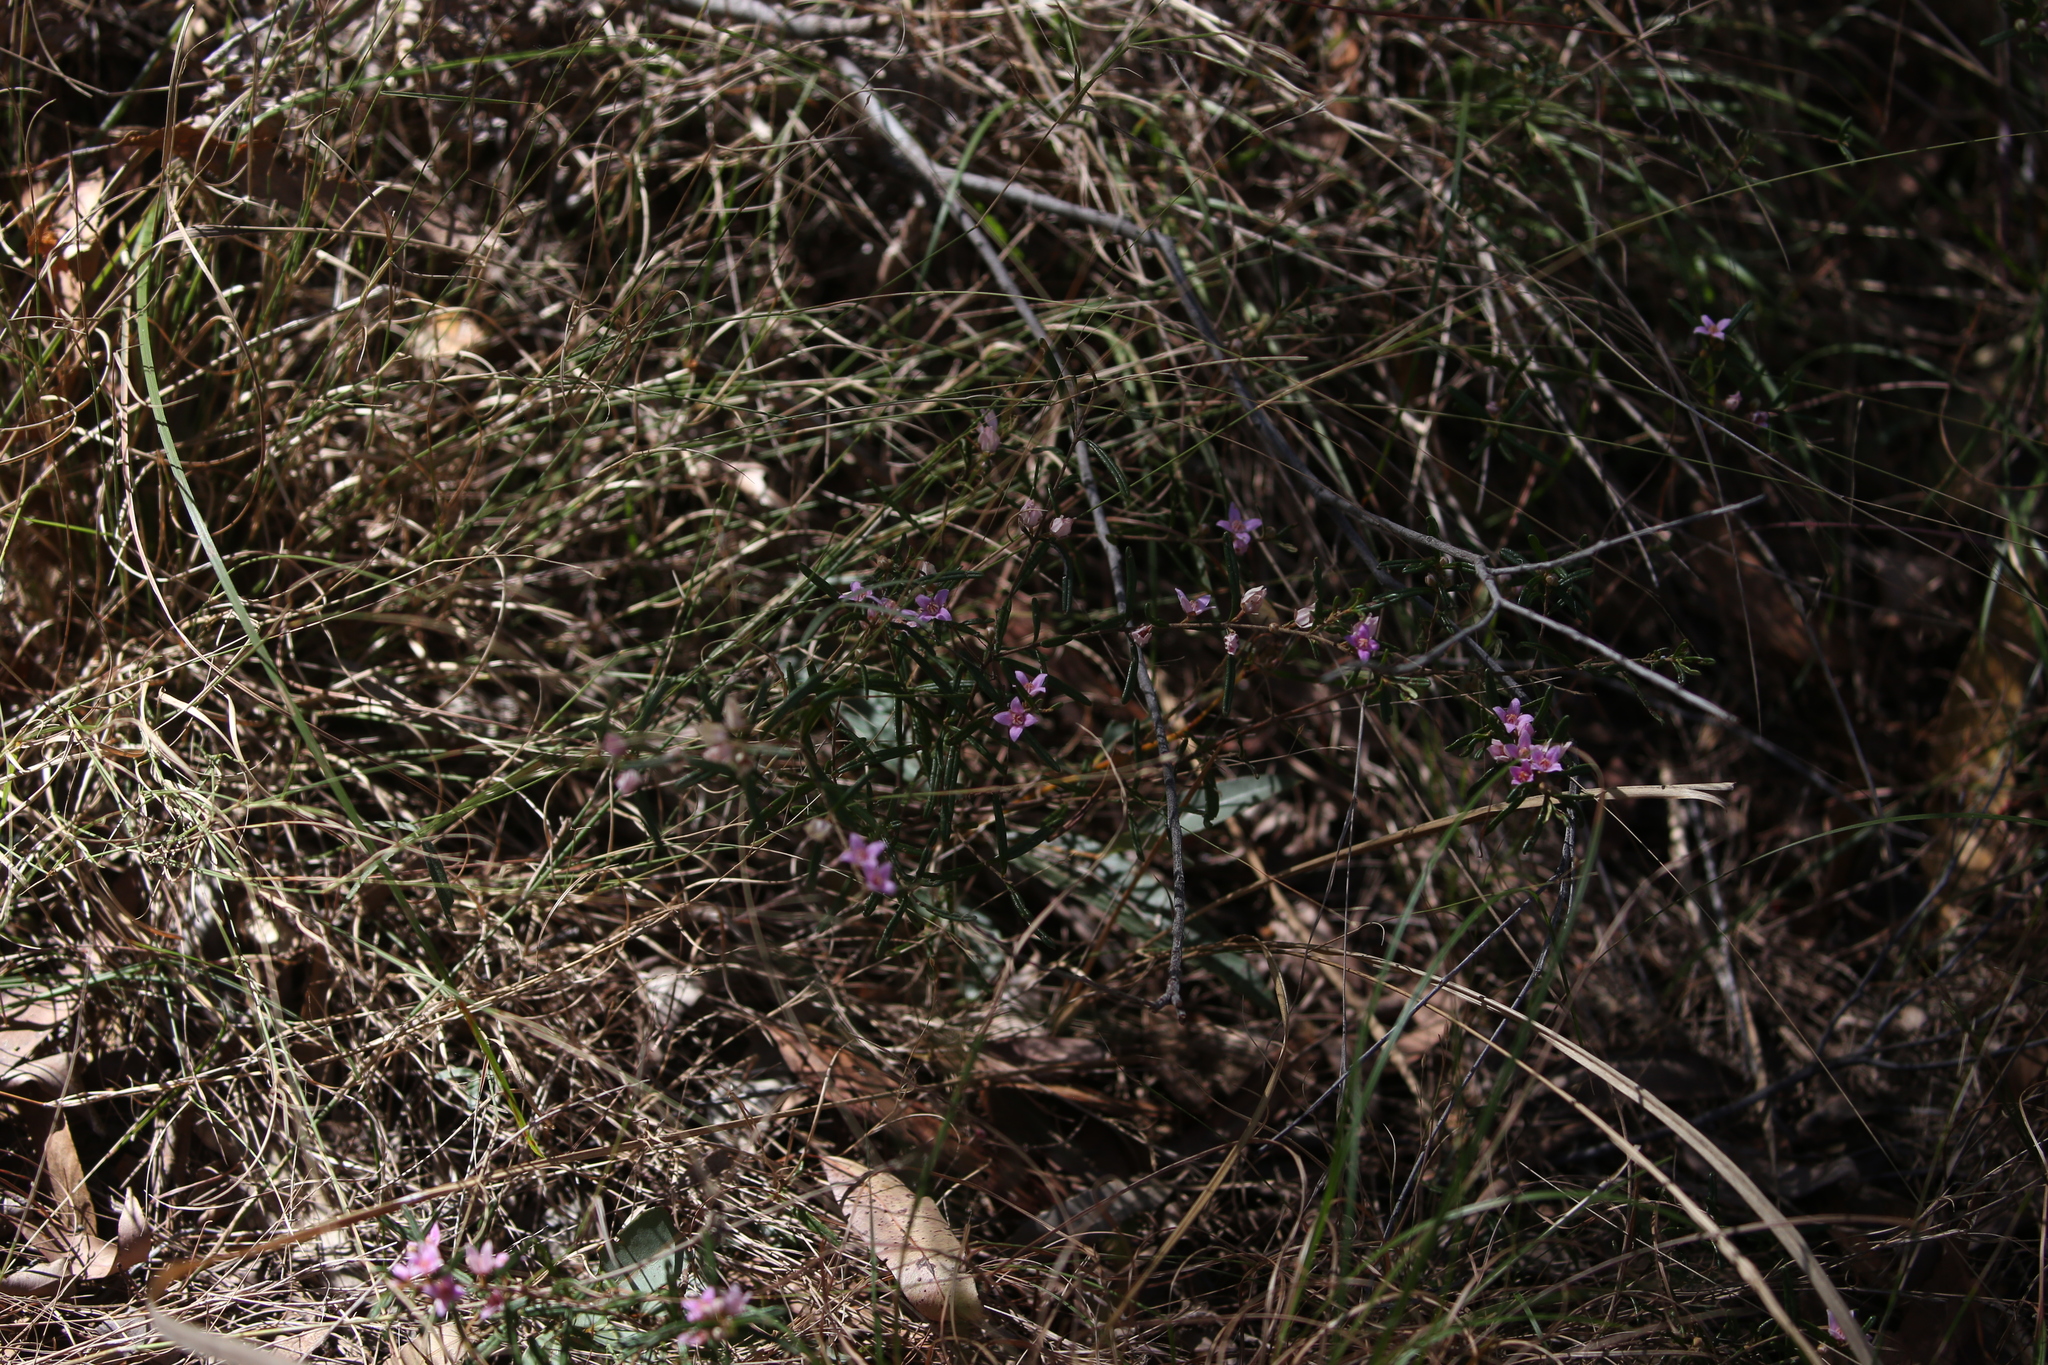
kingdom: Plantae
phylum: Tracheophyta
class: Magnoliopsida
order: Sapindales
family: Rutaceae
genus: Boronia
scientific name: Boronia rosmarinifolia
